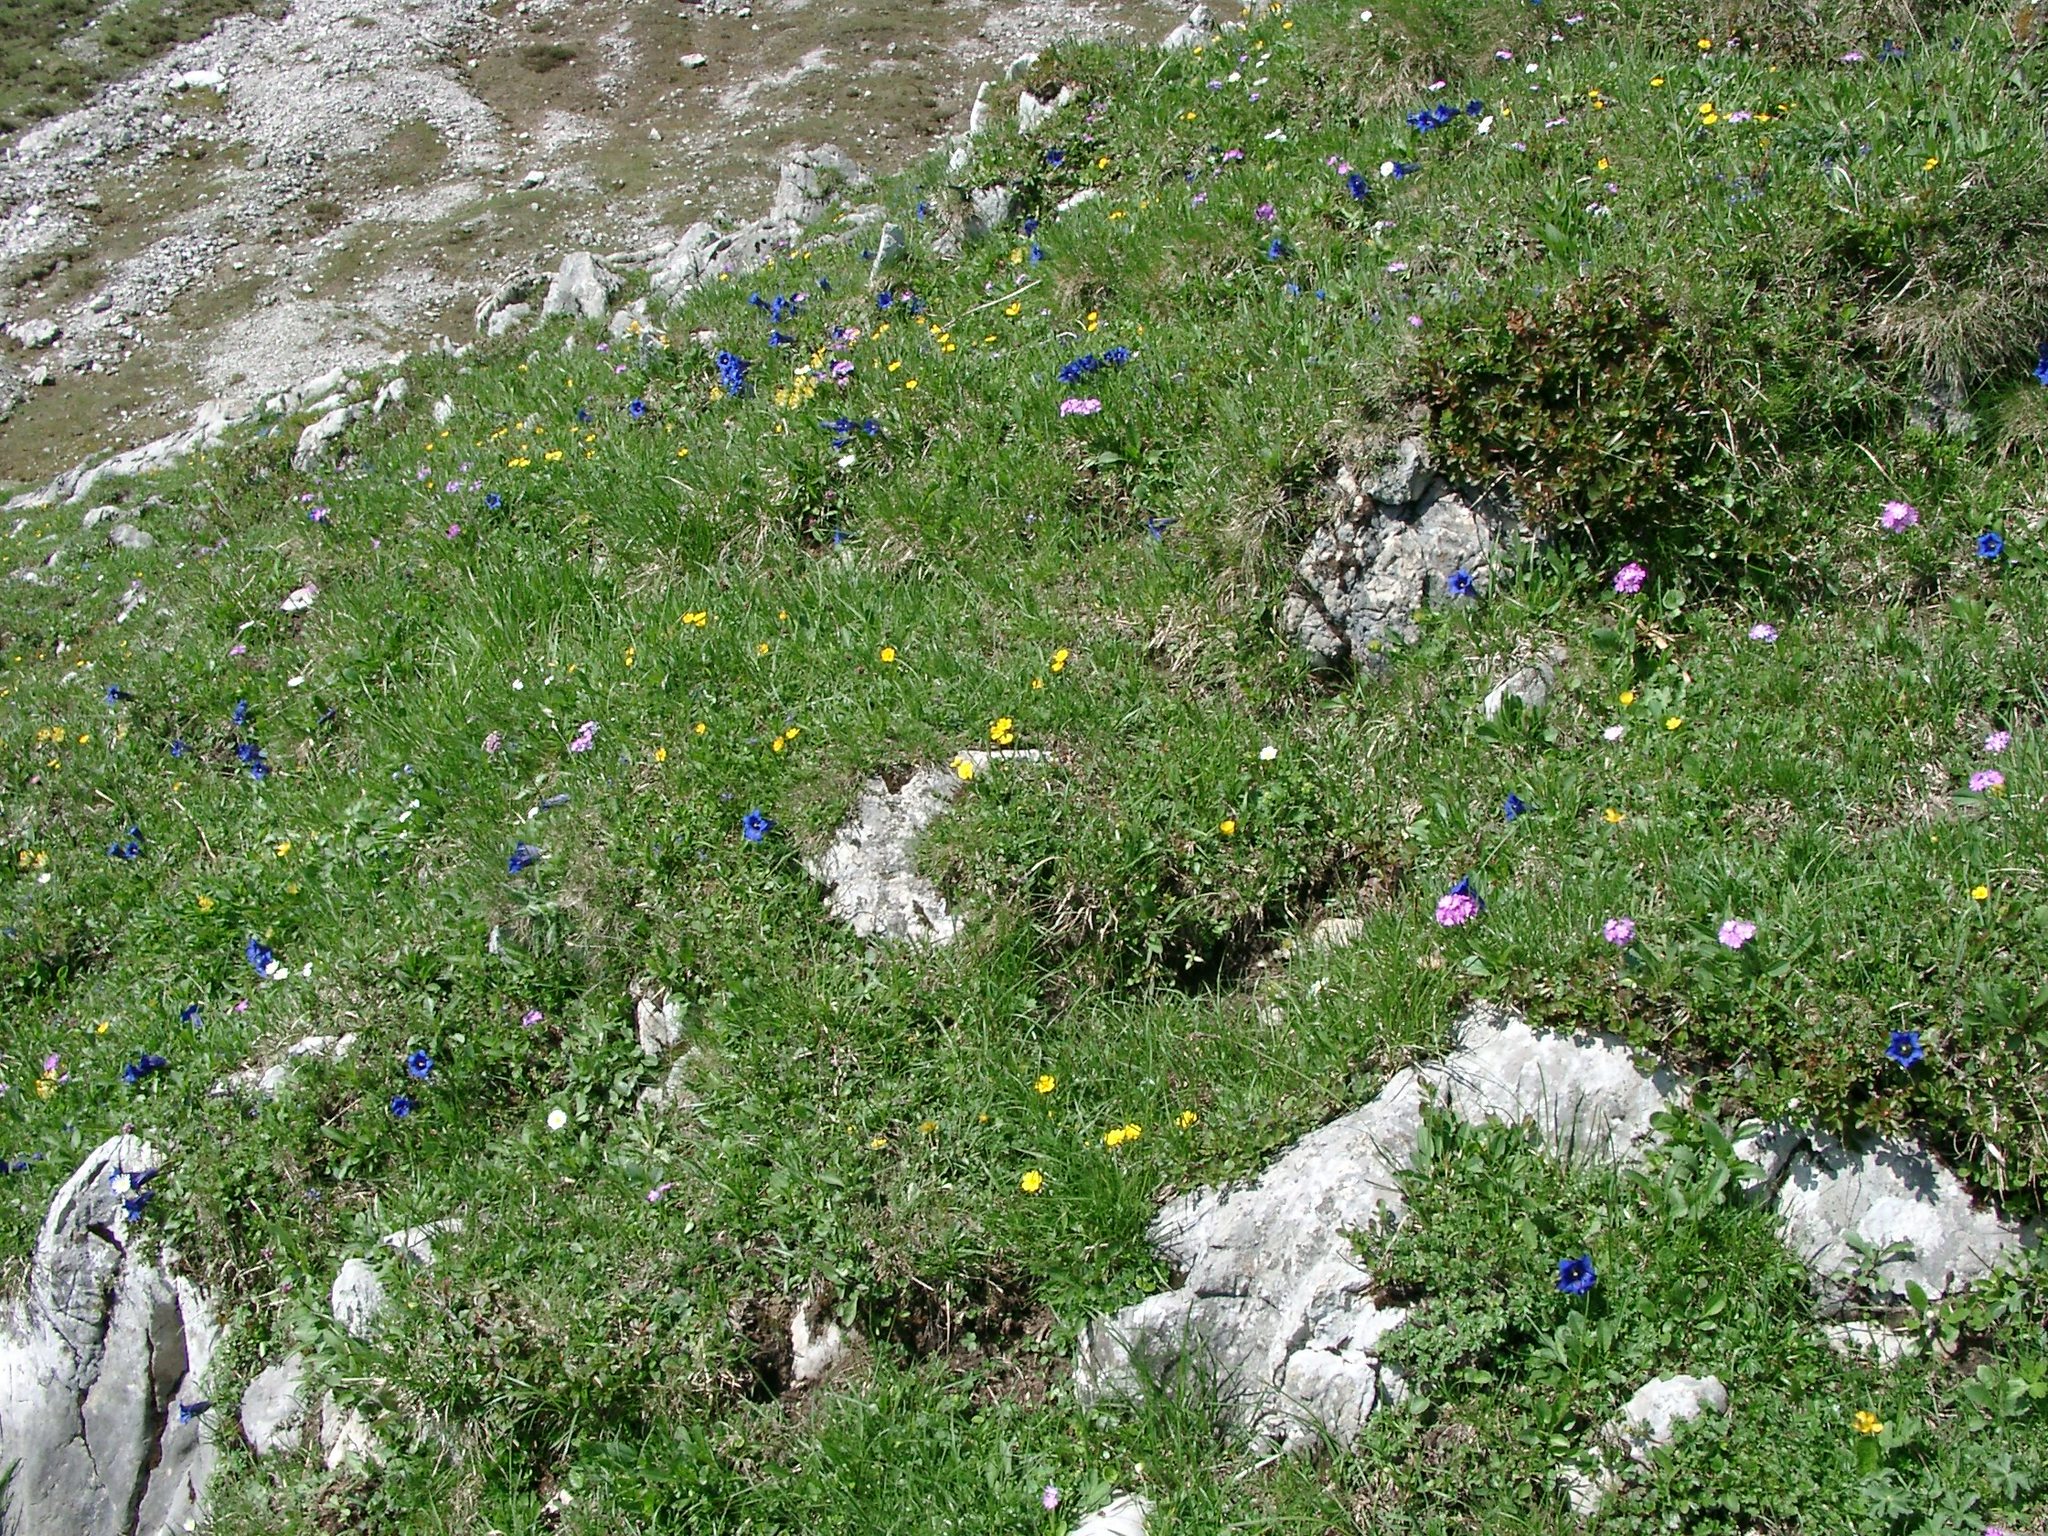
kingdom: Plantae
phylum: Tracheophyta
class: Magnoliopsida
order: Ericales
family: Primulaceae
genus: Primula
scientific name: Primula farinosa
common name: Bird's-eye primrose
